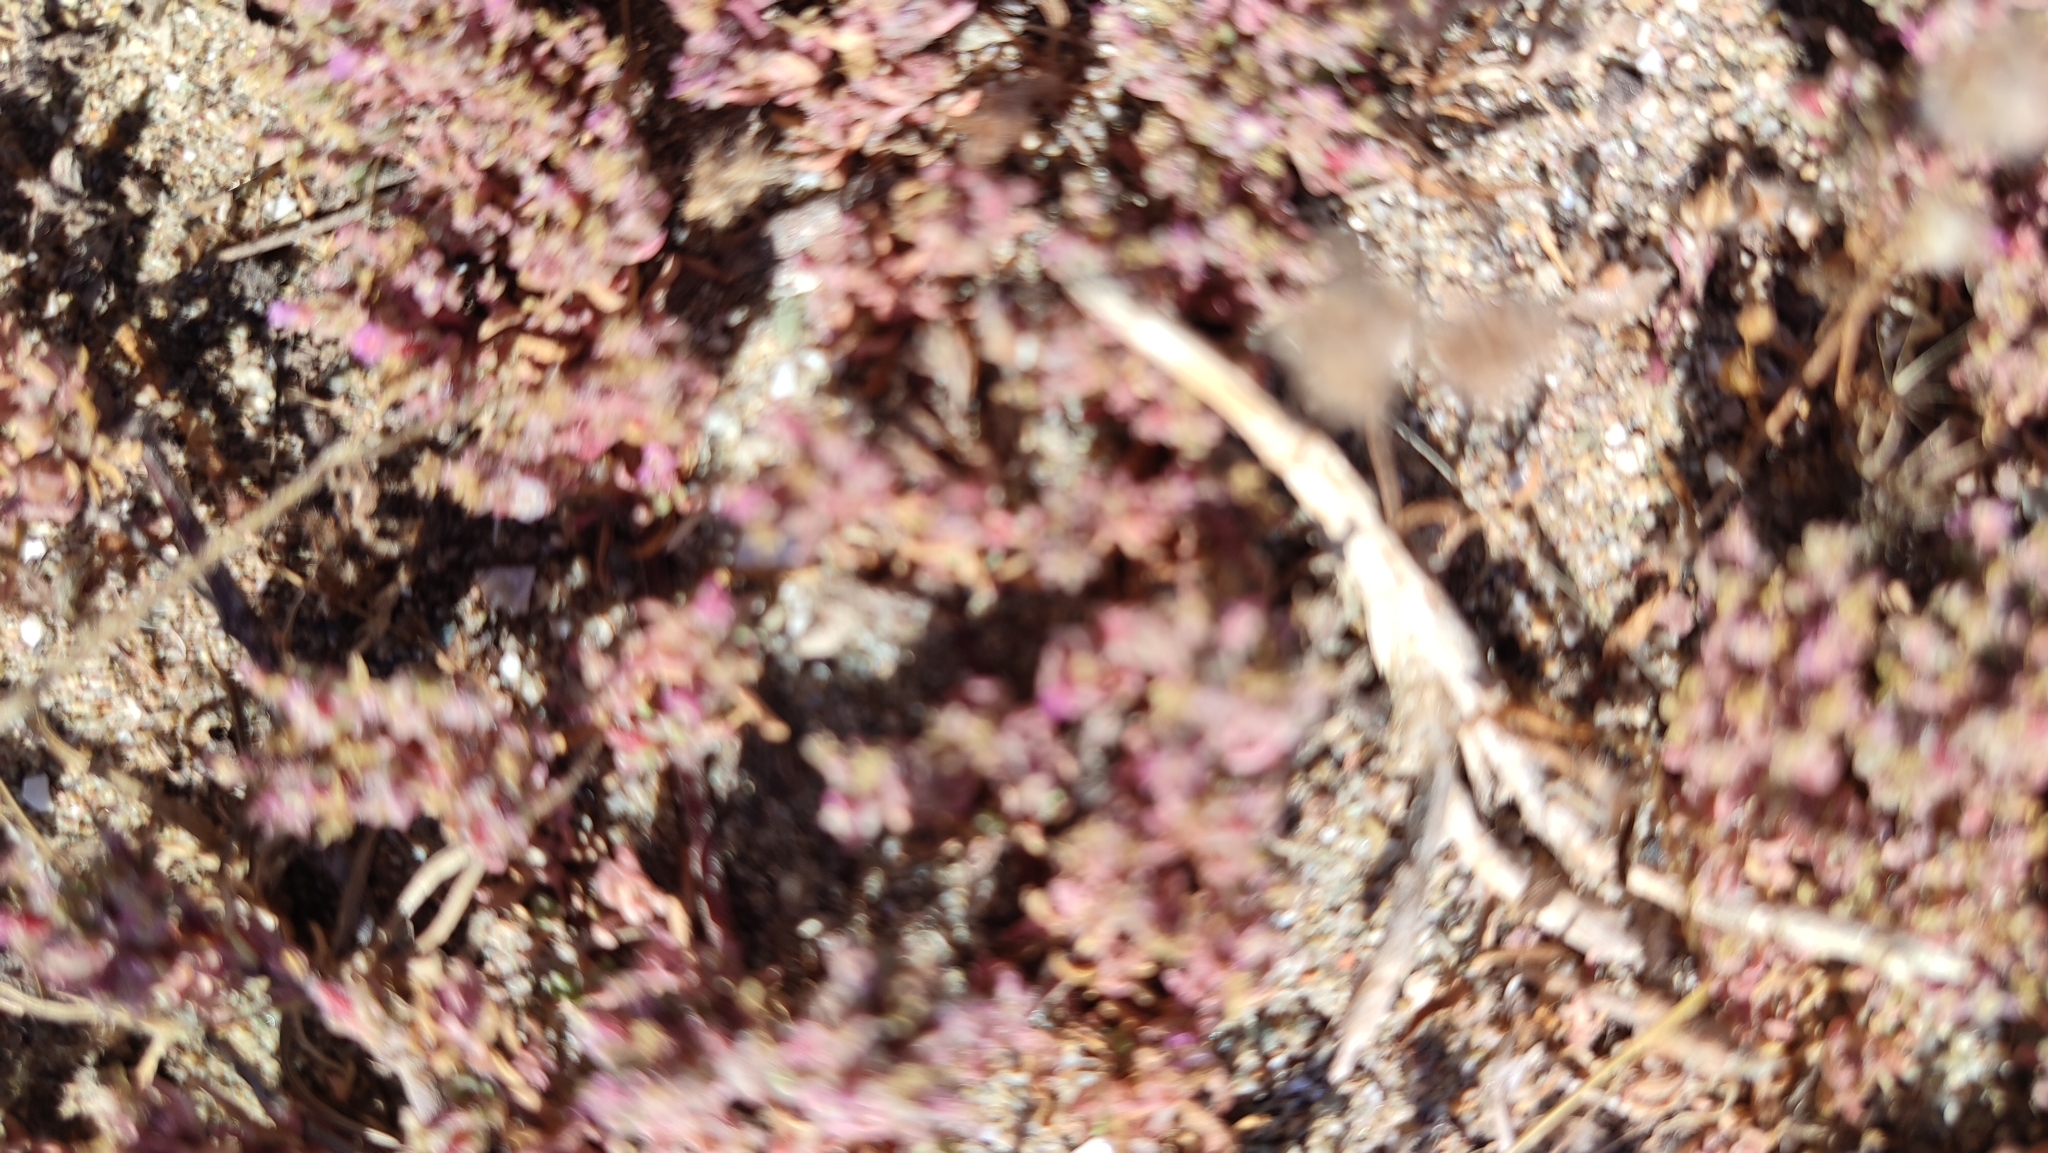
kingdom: Plantae
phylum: Tracheophyta
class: Magnoliopsida
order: Caryophyllales
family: Frankeniaceae
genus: Frankenia
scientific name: Frankenia hirsuta
